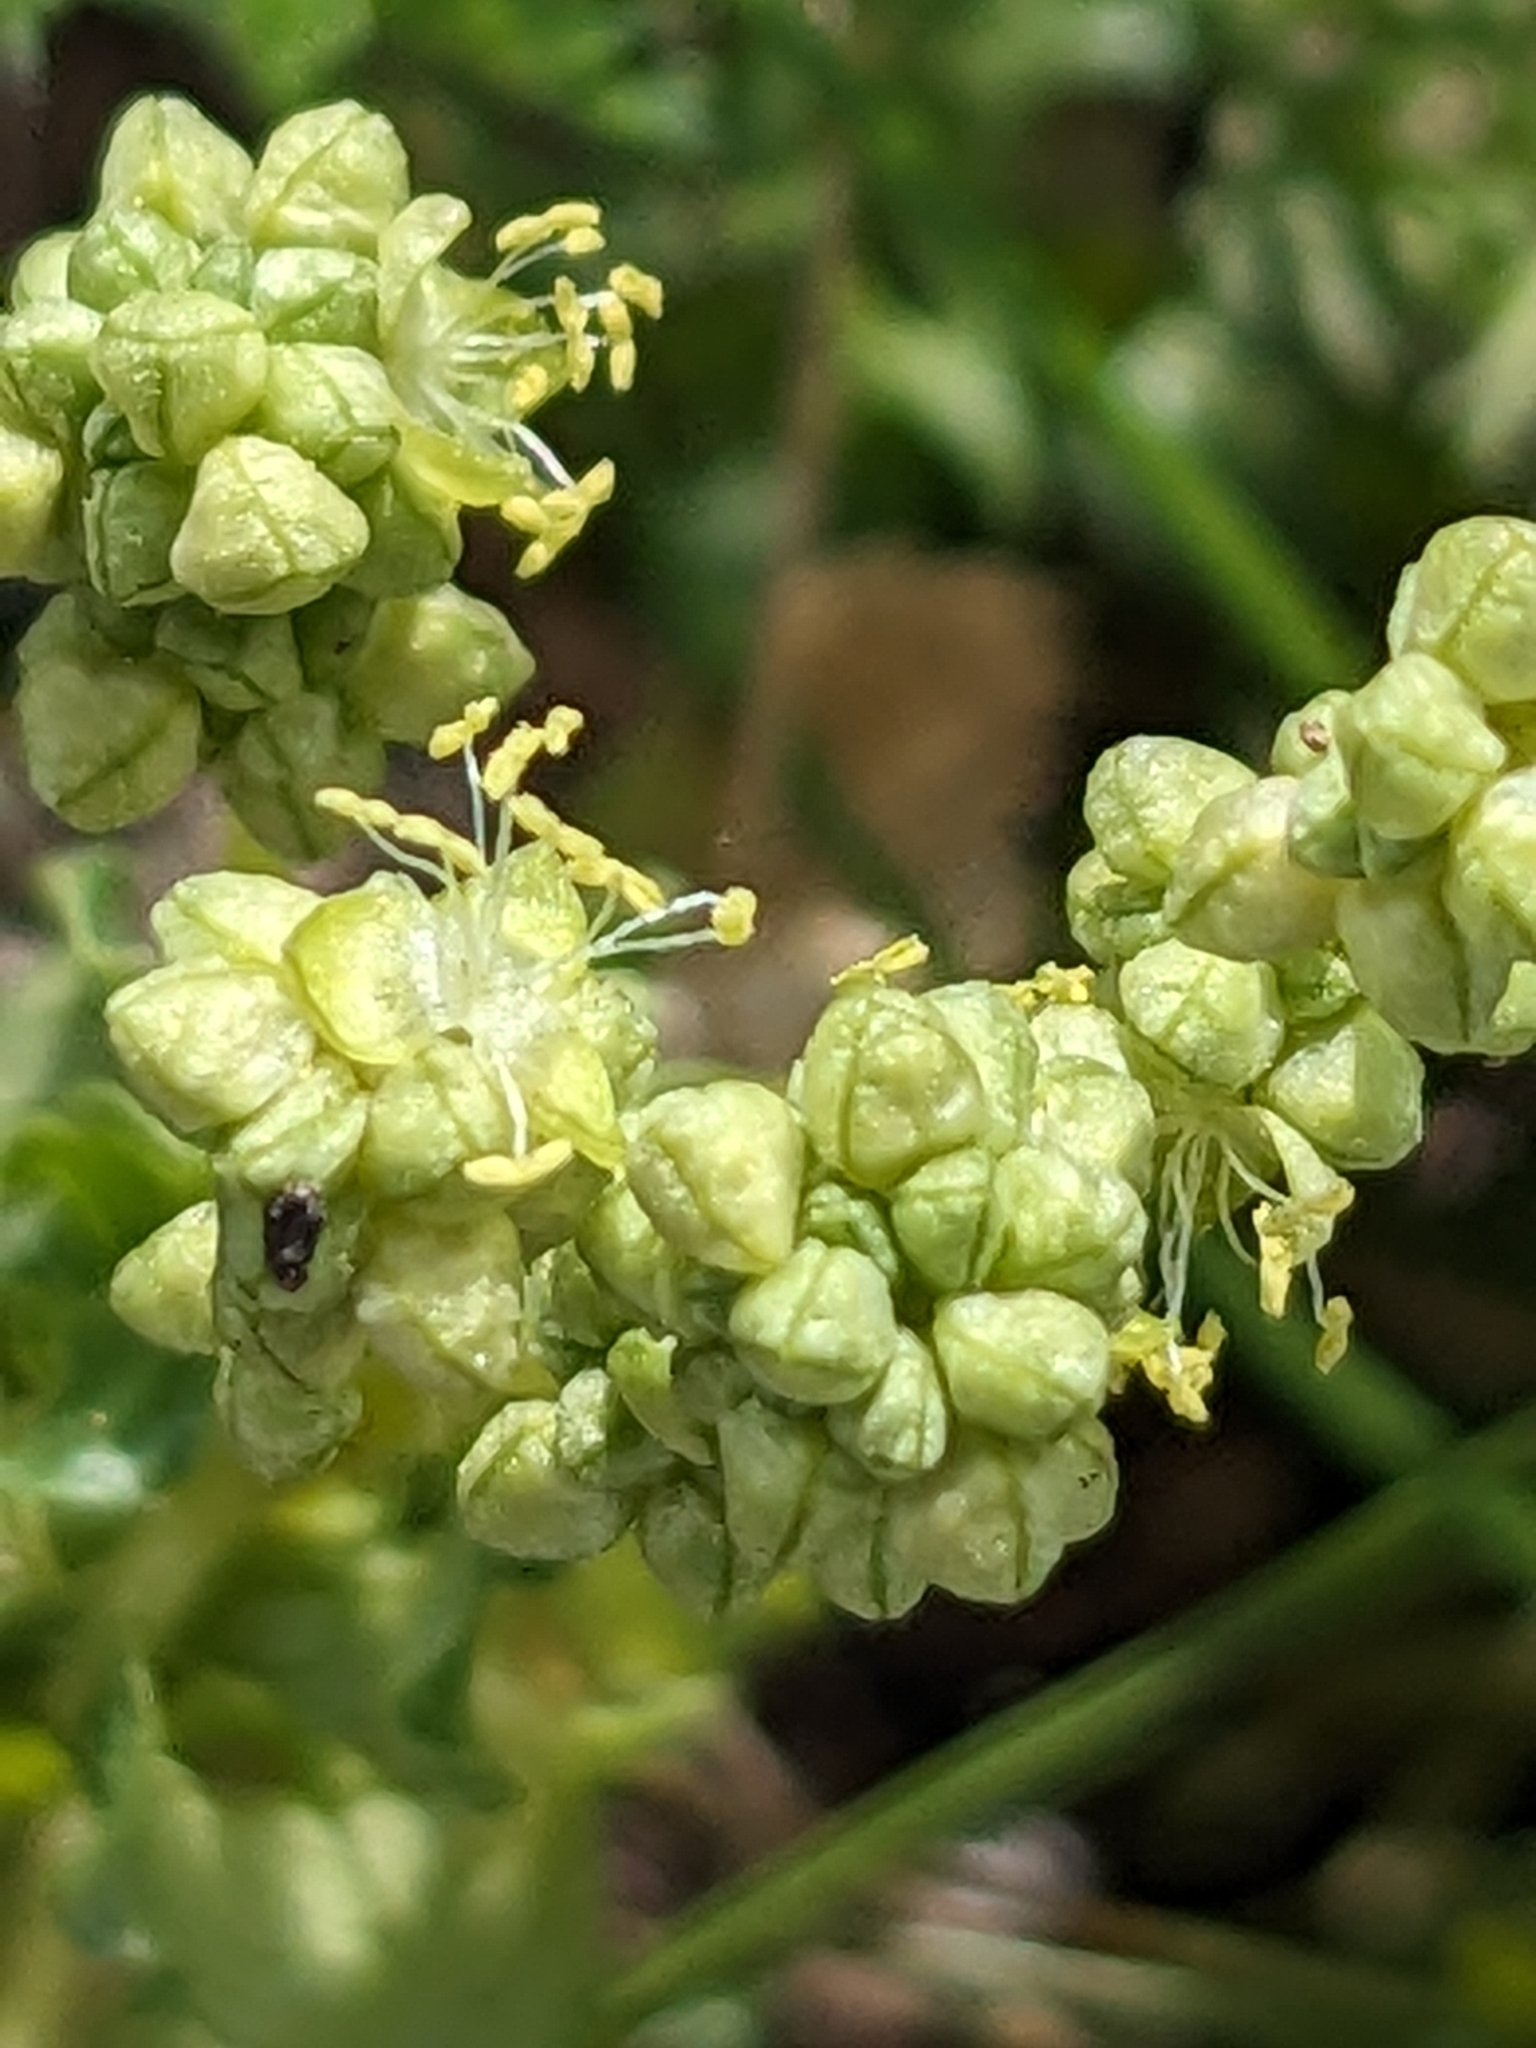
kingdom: Plantae
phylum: Tracheophyta
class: Magnoliopsida
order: Malpighiales
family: Euphorbiaceae
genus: Mercurialis
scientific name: Mercurialis huetii
